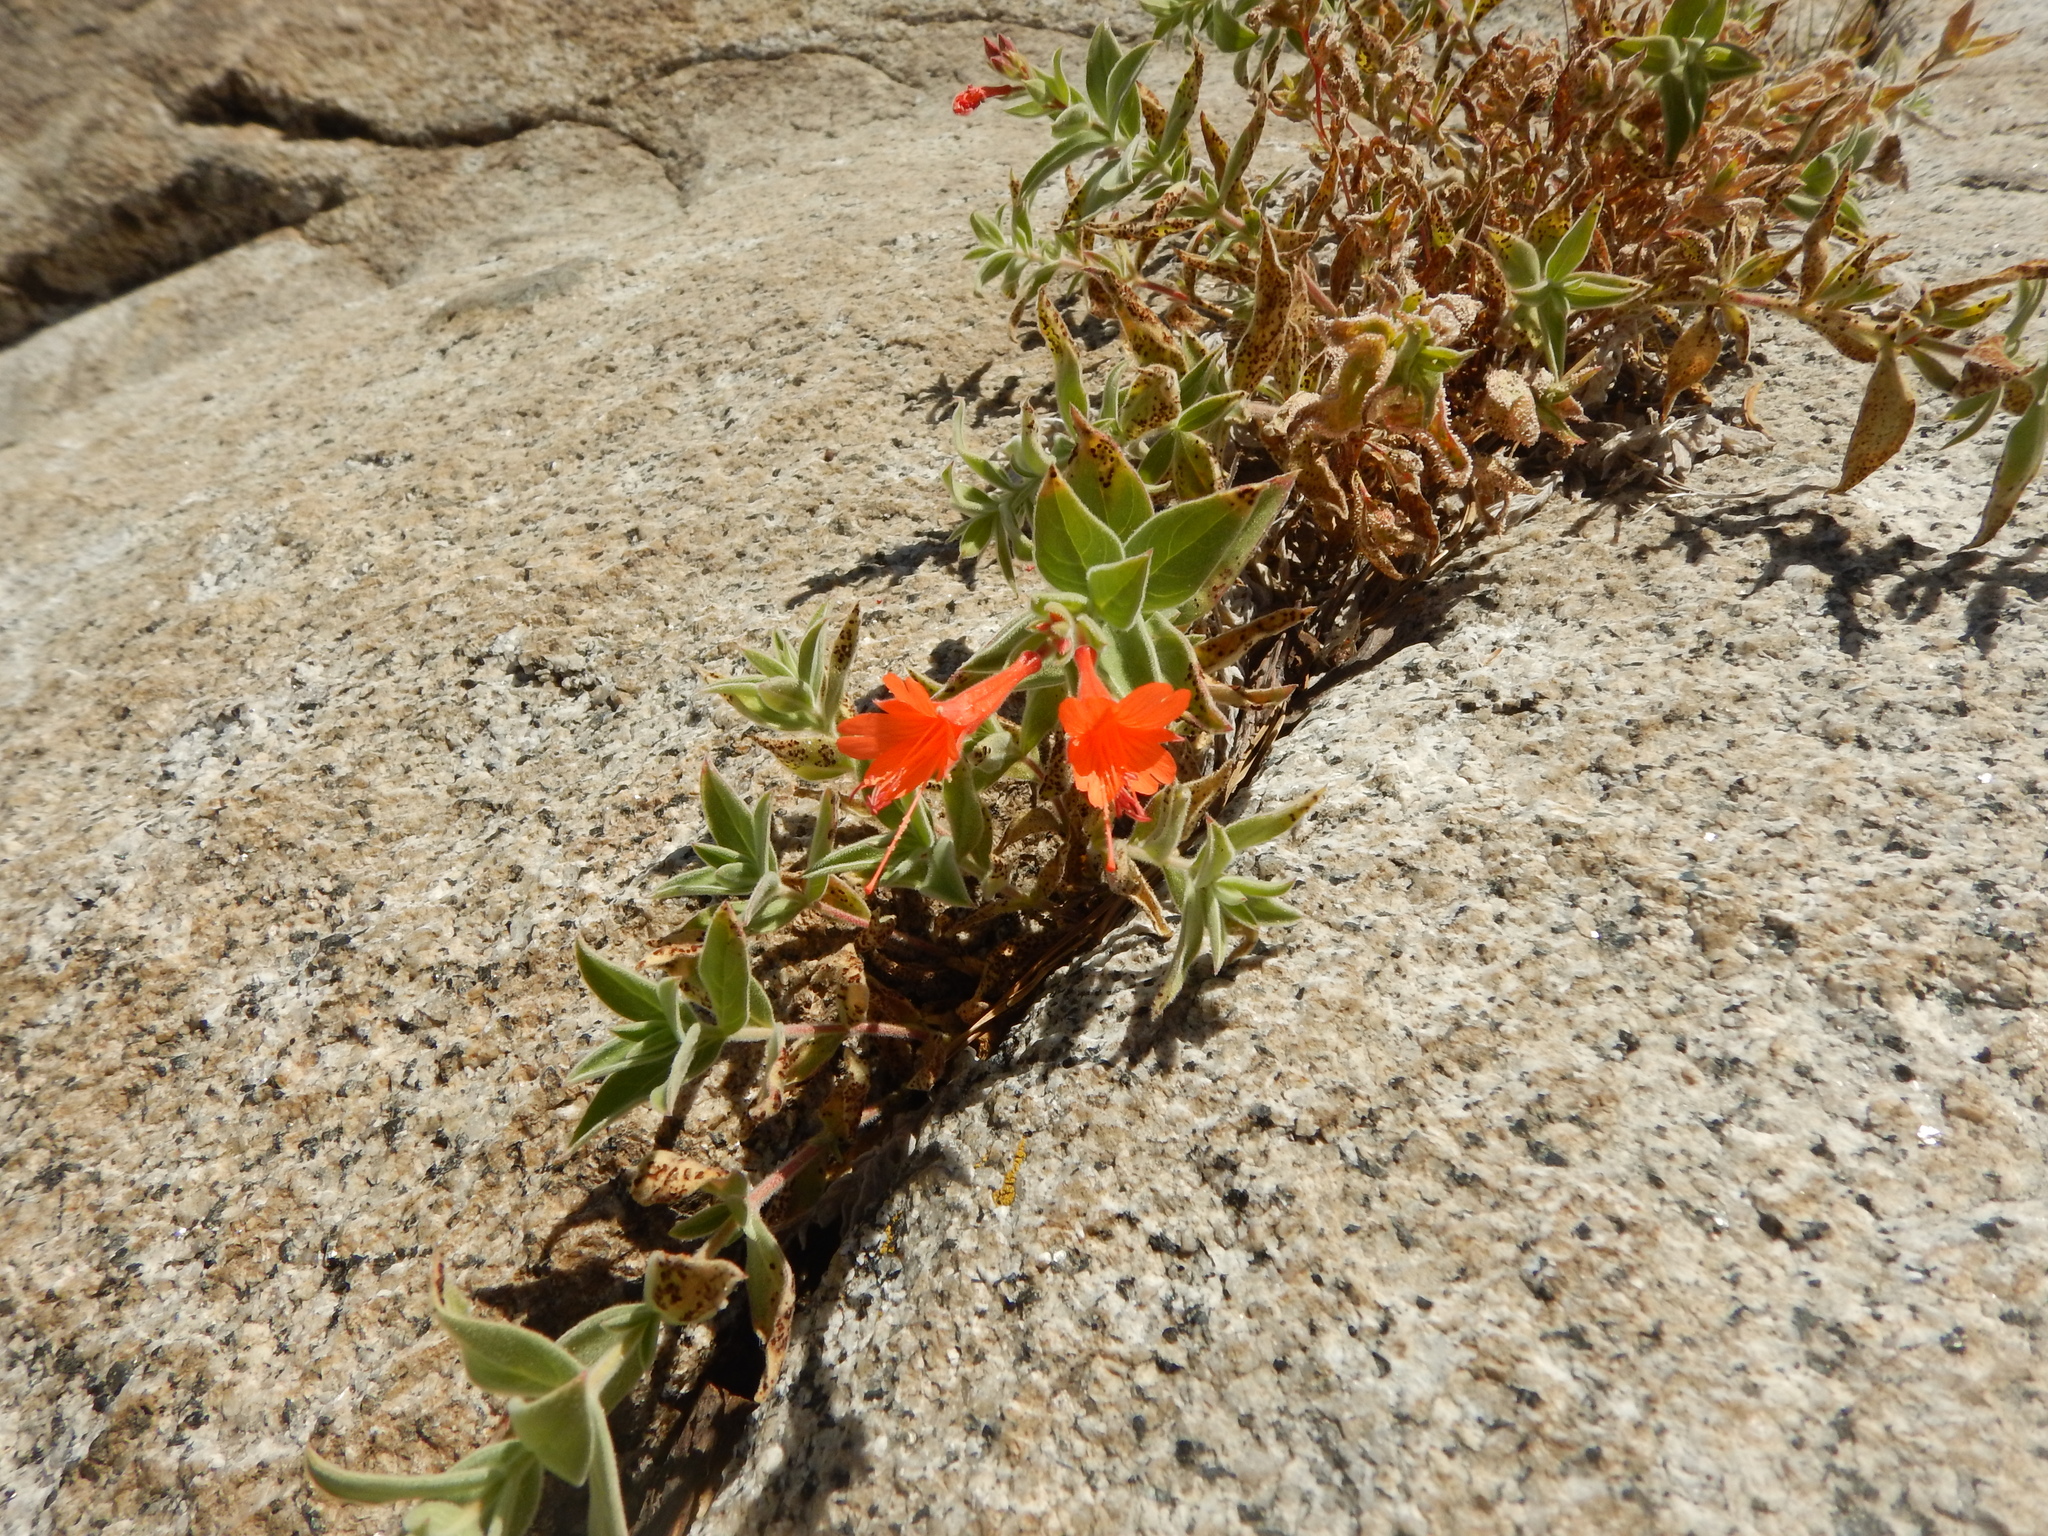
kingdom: Plantae
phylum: Tracheophyta
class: Magnoliopsida
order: Myrtales
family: Onagraceae
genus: Epilobium
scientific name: Epilobium canum
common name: California-fuchsia
